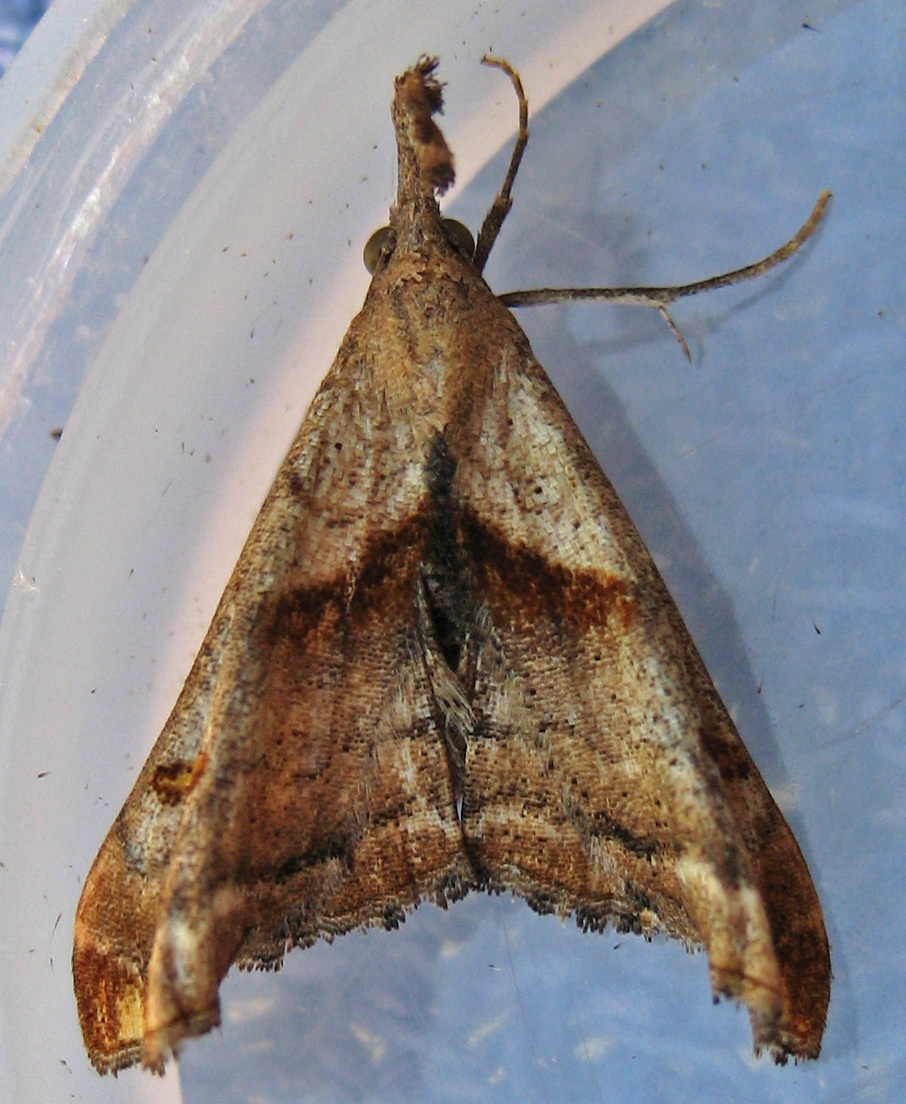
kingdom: Animalia
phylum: Arthropoda
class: Insecta
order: Lepidoptera
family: Erebidae
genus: Palthis
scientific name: Palthis angulalis
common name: Dark-spotted palthis moth
